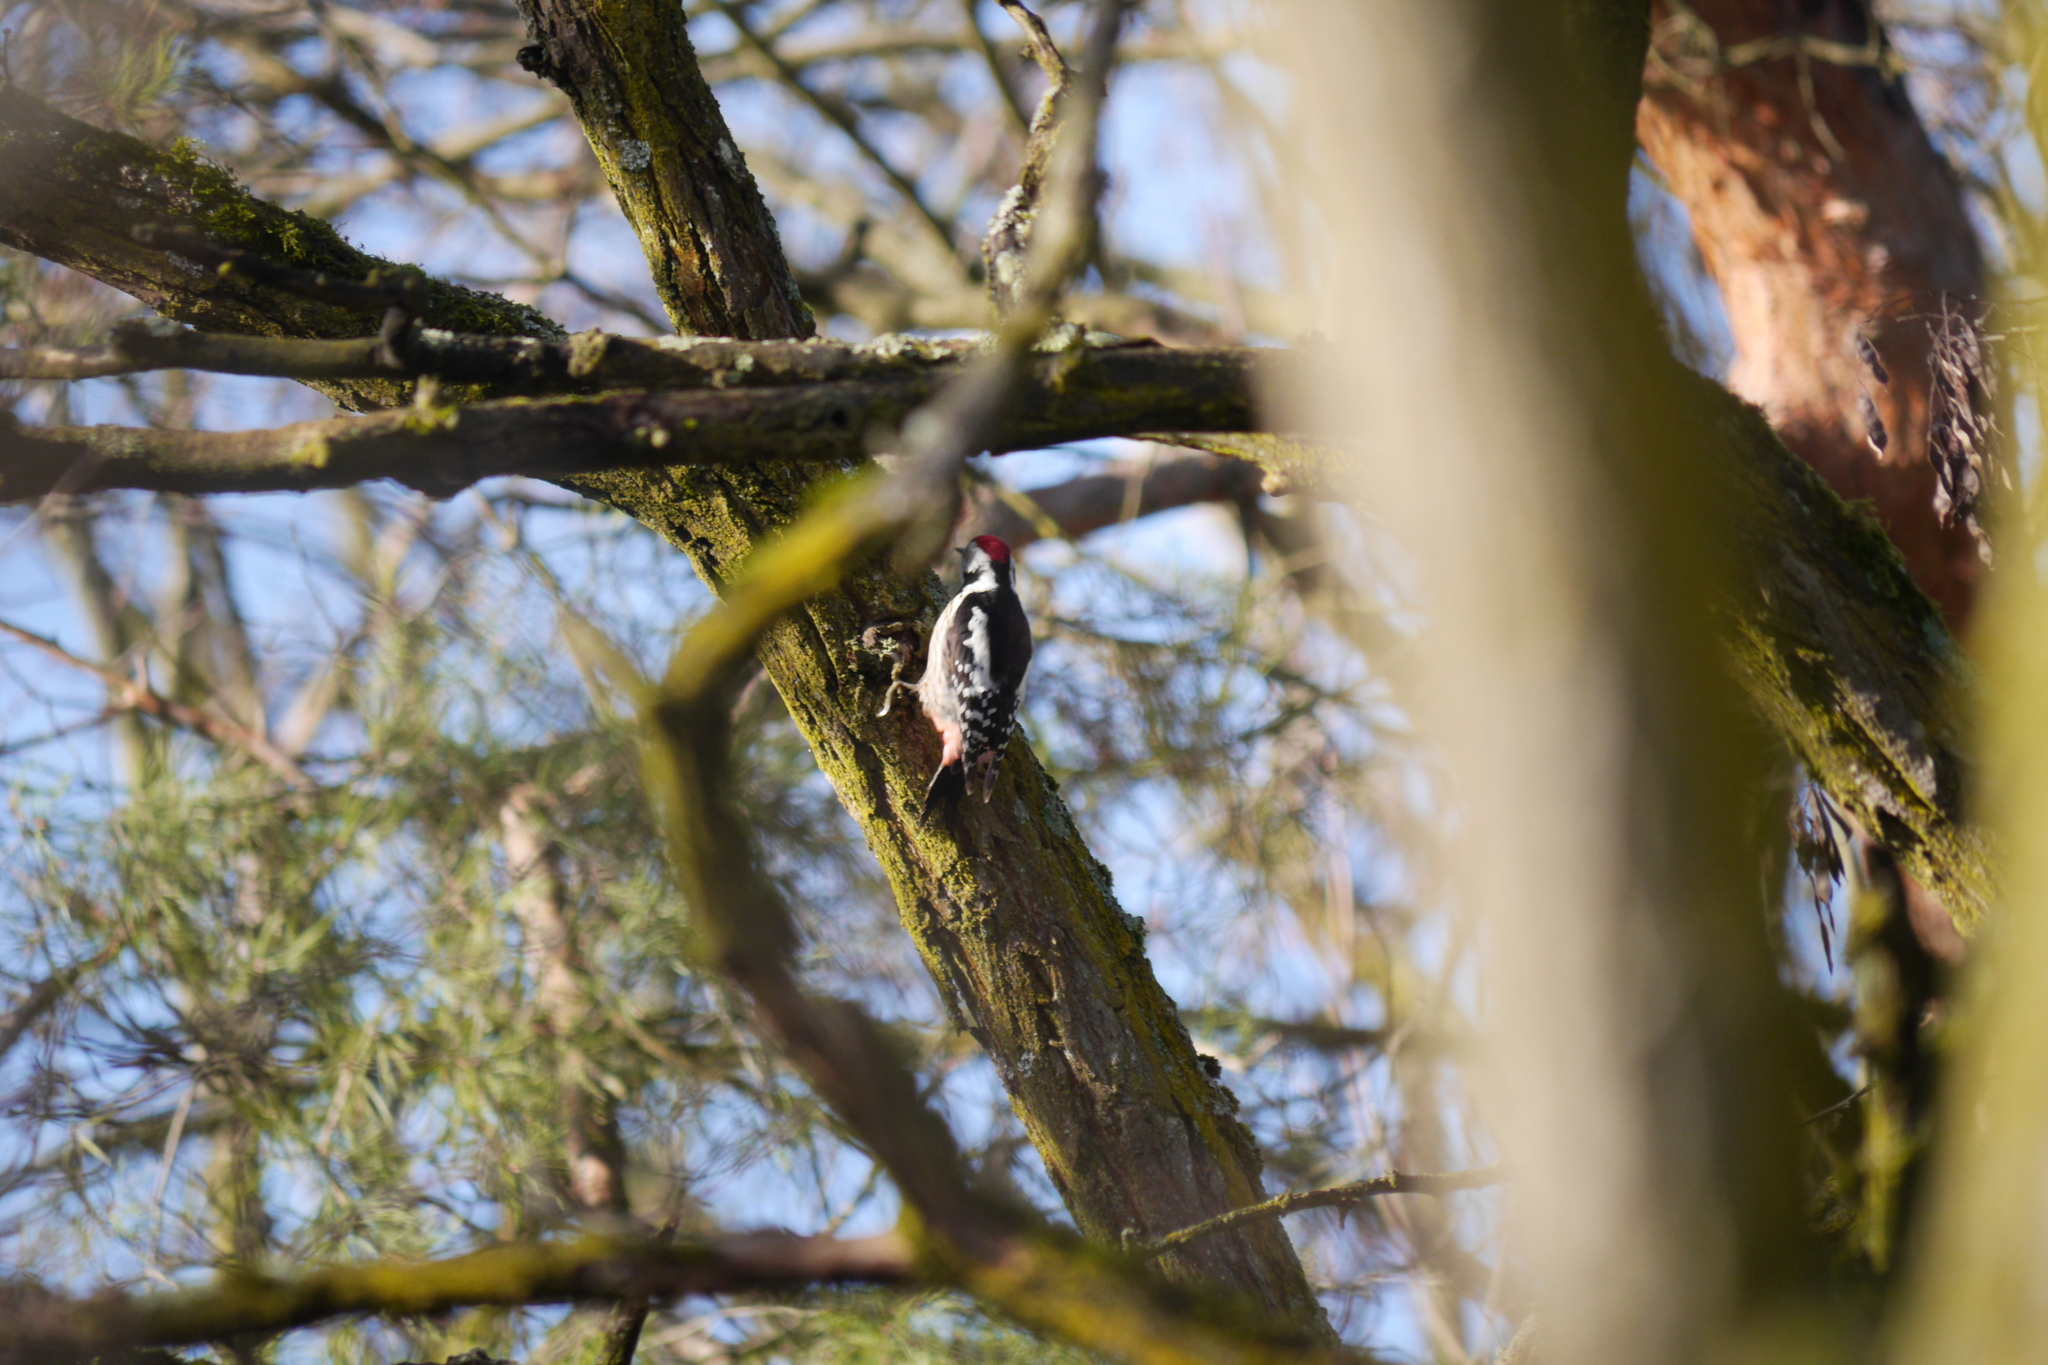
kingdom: Animalia
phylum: Chordata
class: Aves
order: Piciformes
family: Picidae
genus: Dendrocoptes
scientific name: Dendrocoptes medius
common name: Middle spotted woodpecker
